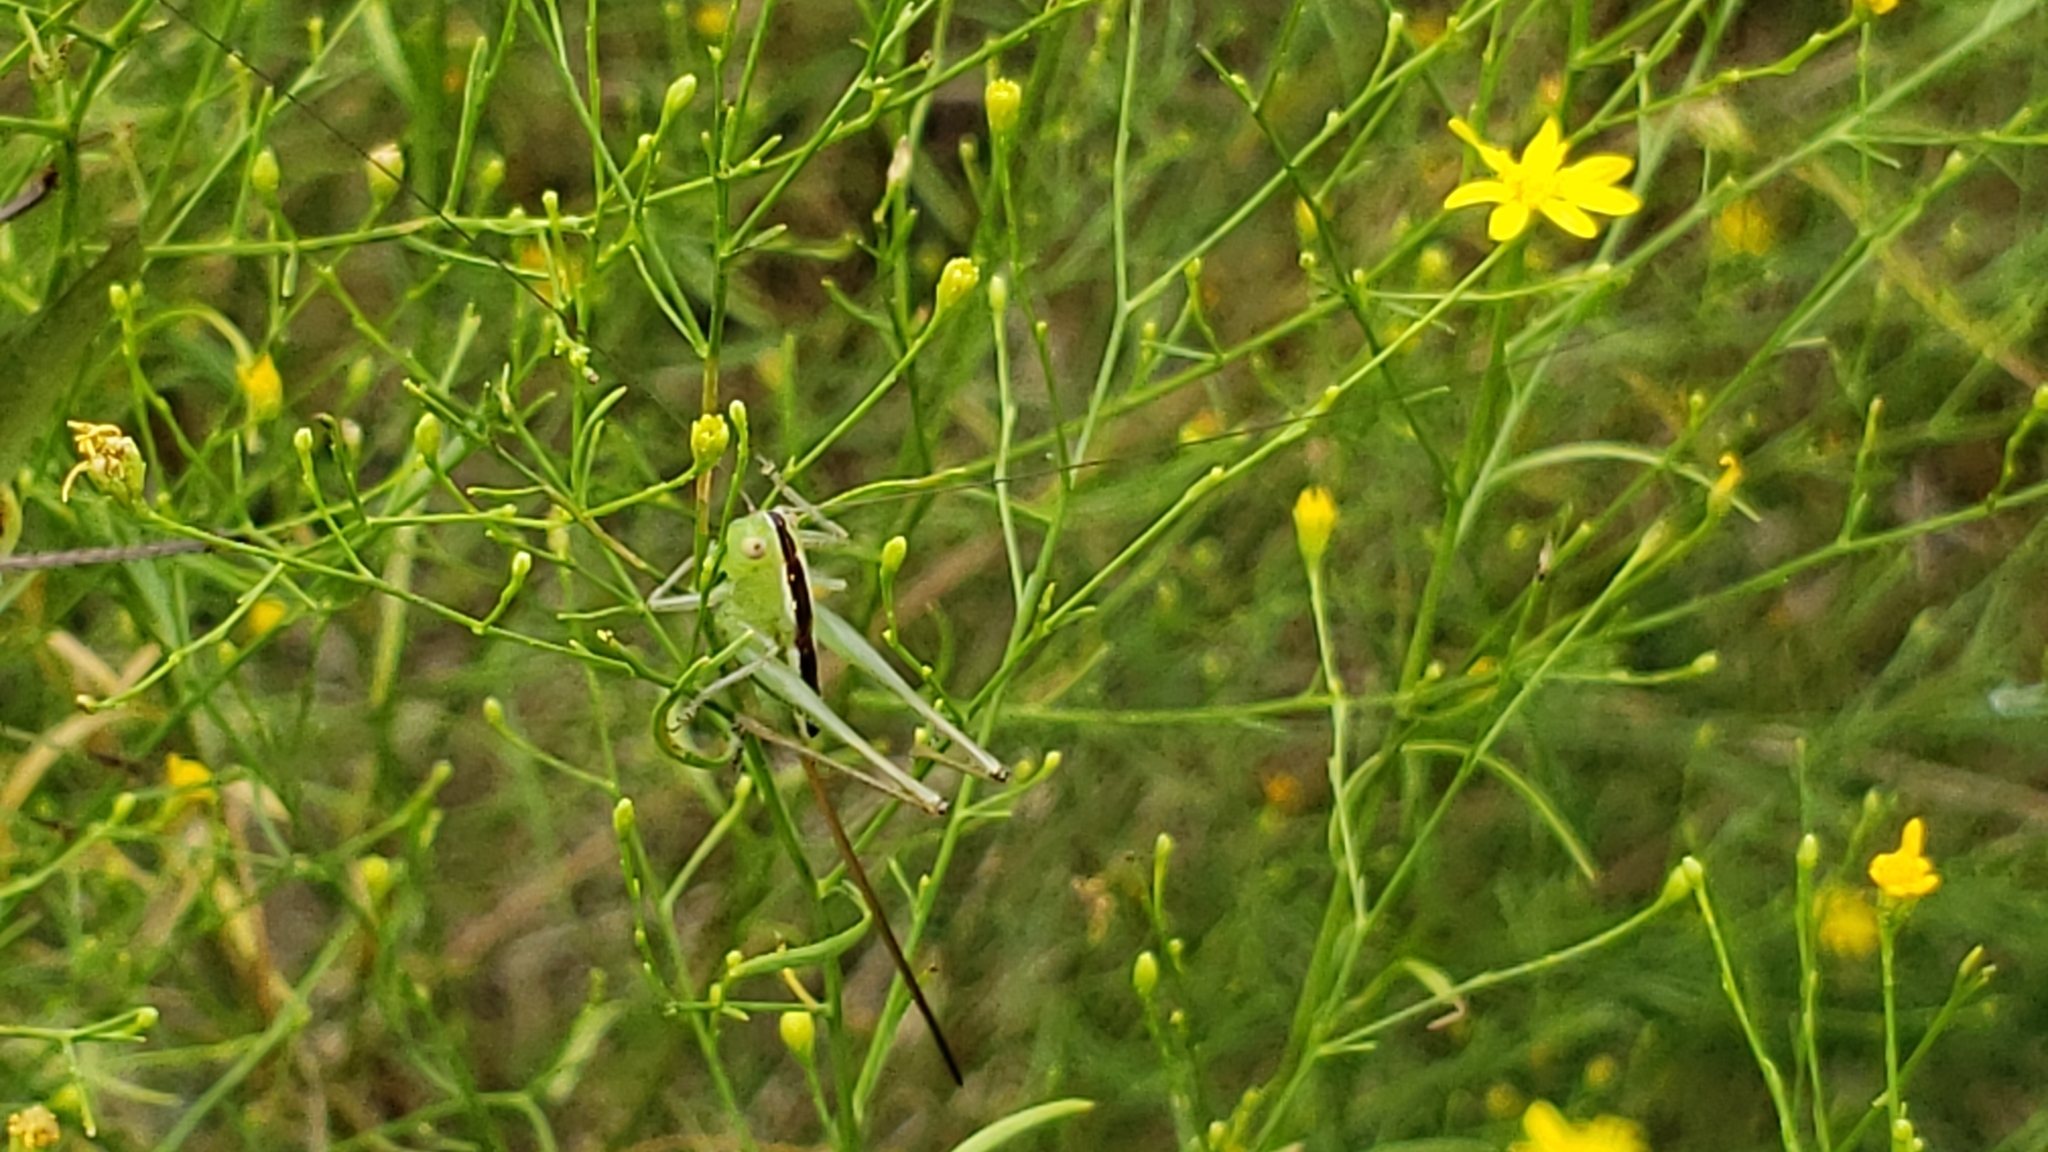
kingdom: Animalia
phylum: Arthropoda
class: Insecta
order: Orthoptera
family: Tettigoniidae
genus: Conocephalus
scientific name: Conocephalus strictus
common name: Straight-lanced katydid
